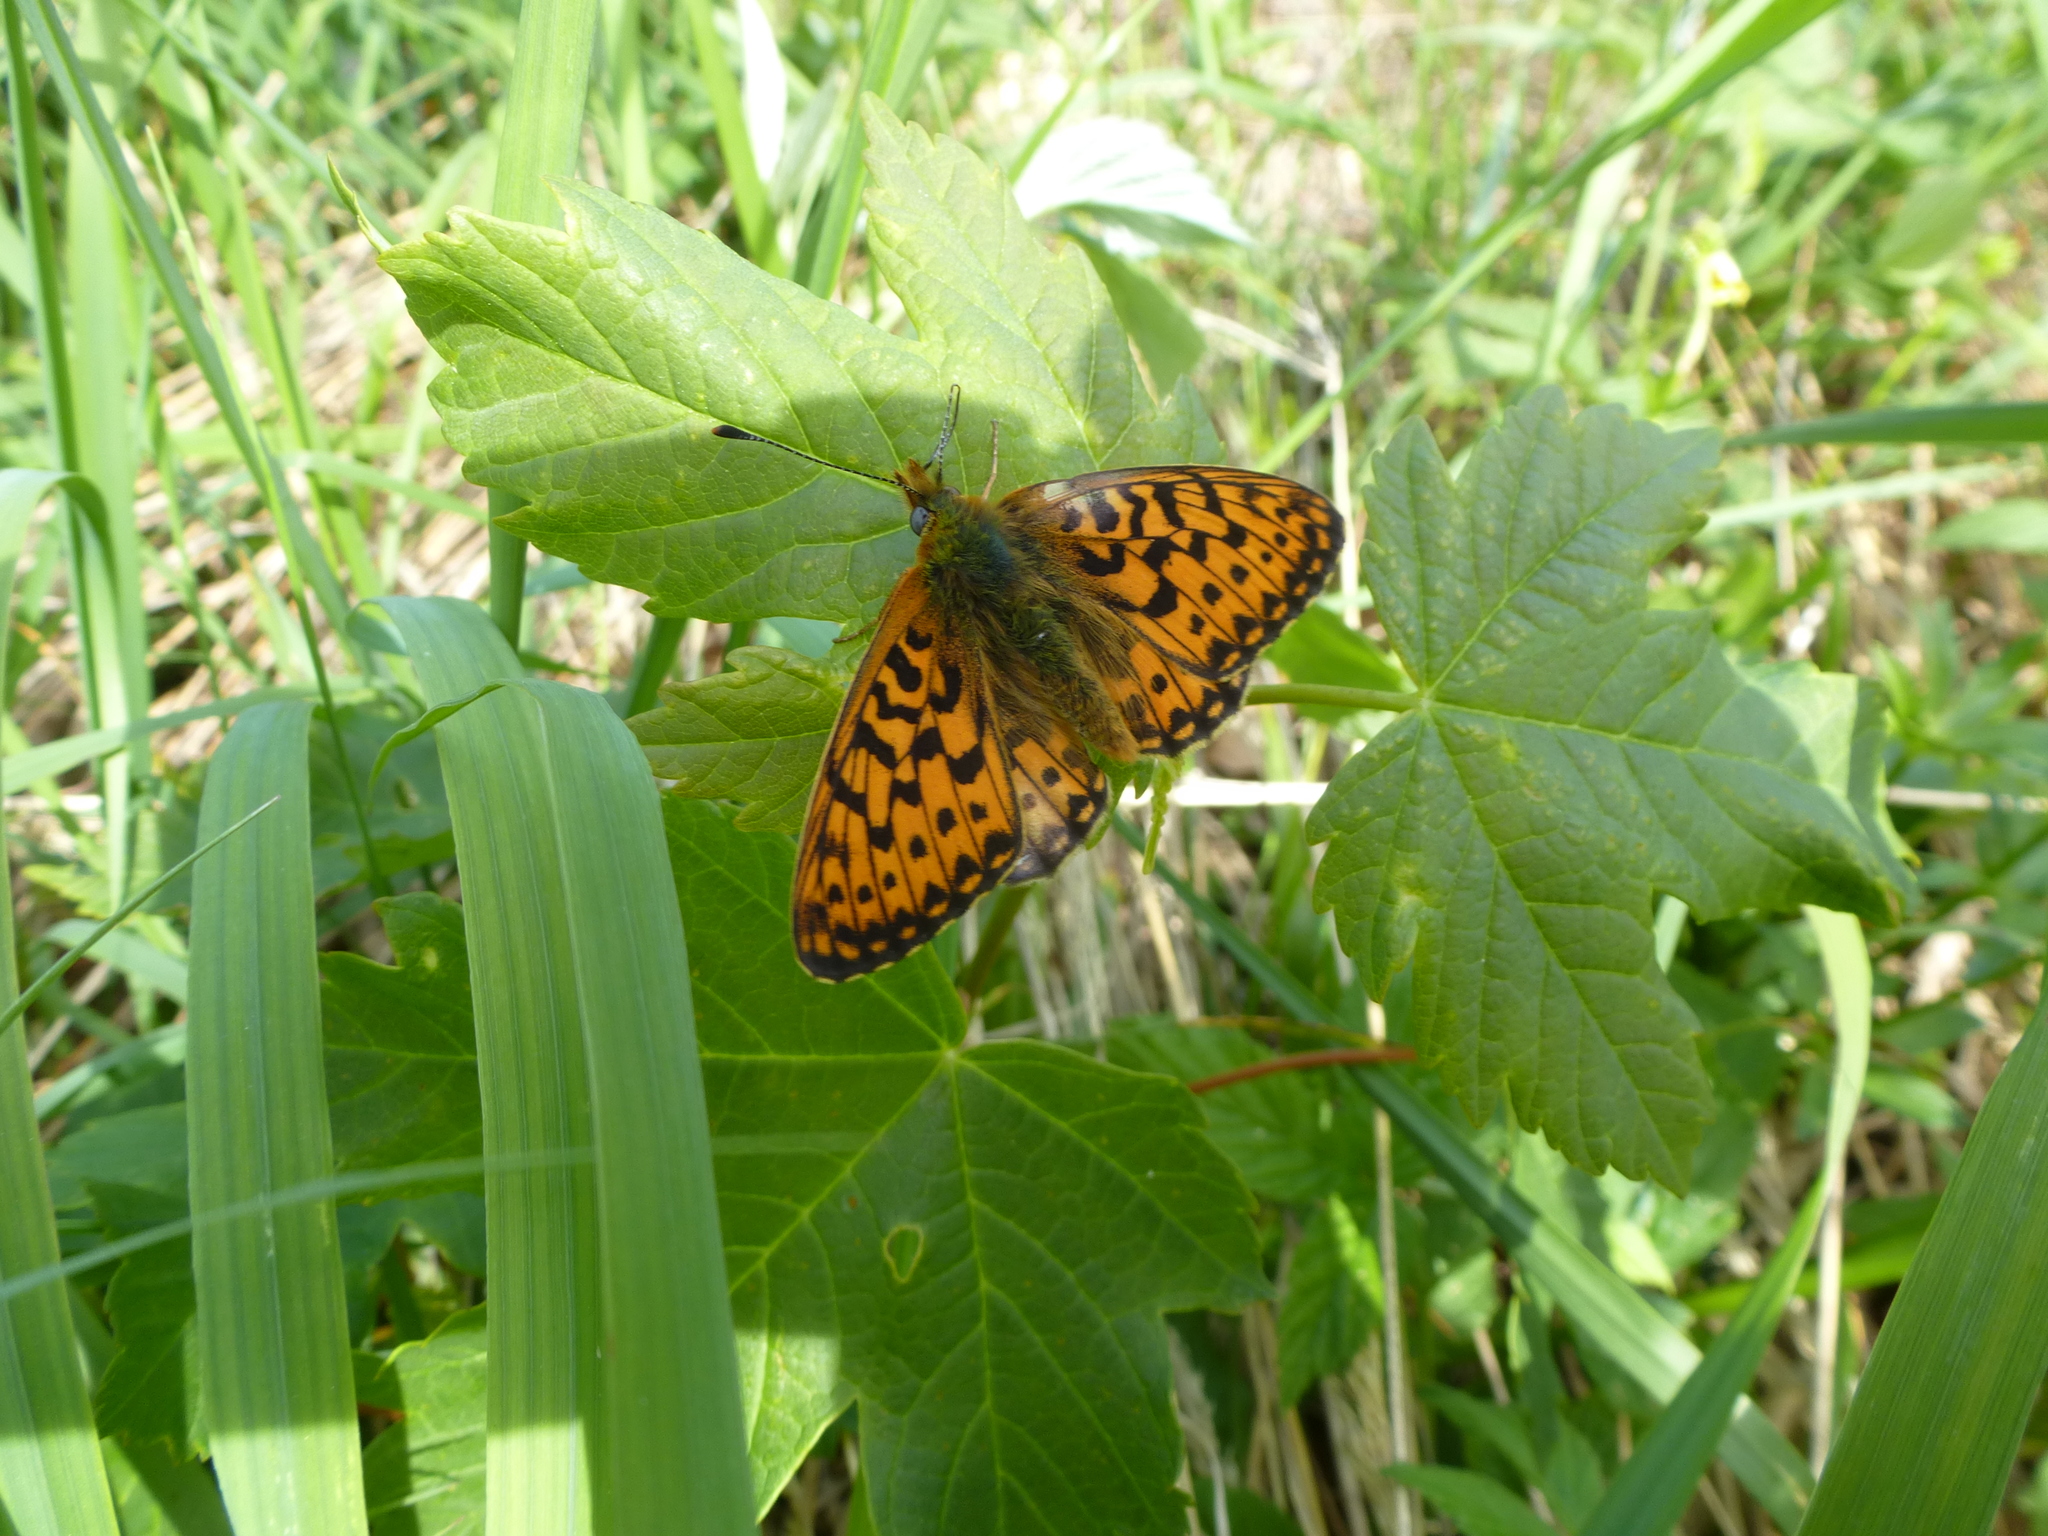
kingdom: Animalia
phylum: Arthropoda
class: Insecta
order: Lepidoptera
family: Nymphalidae
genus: Clossiana
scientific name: Clossiana euphrosyne
